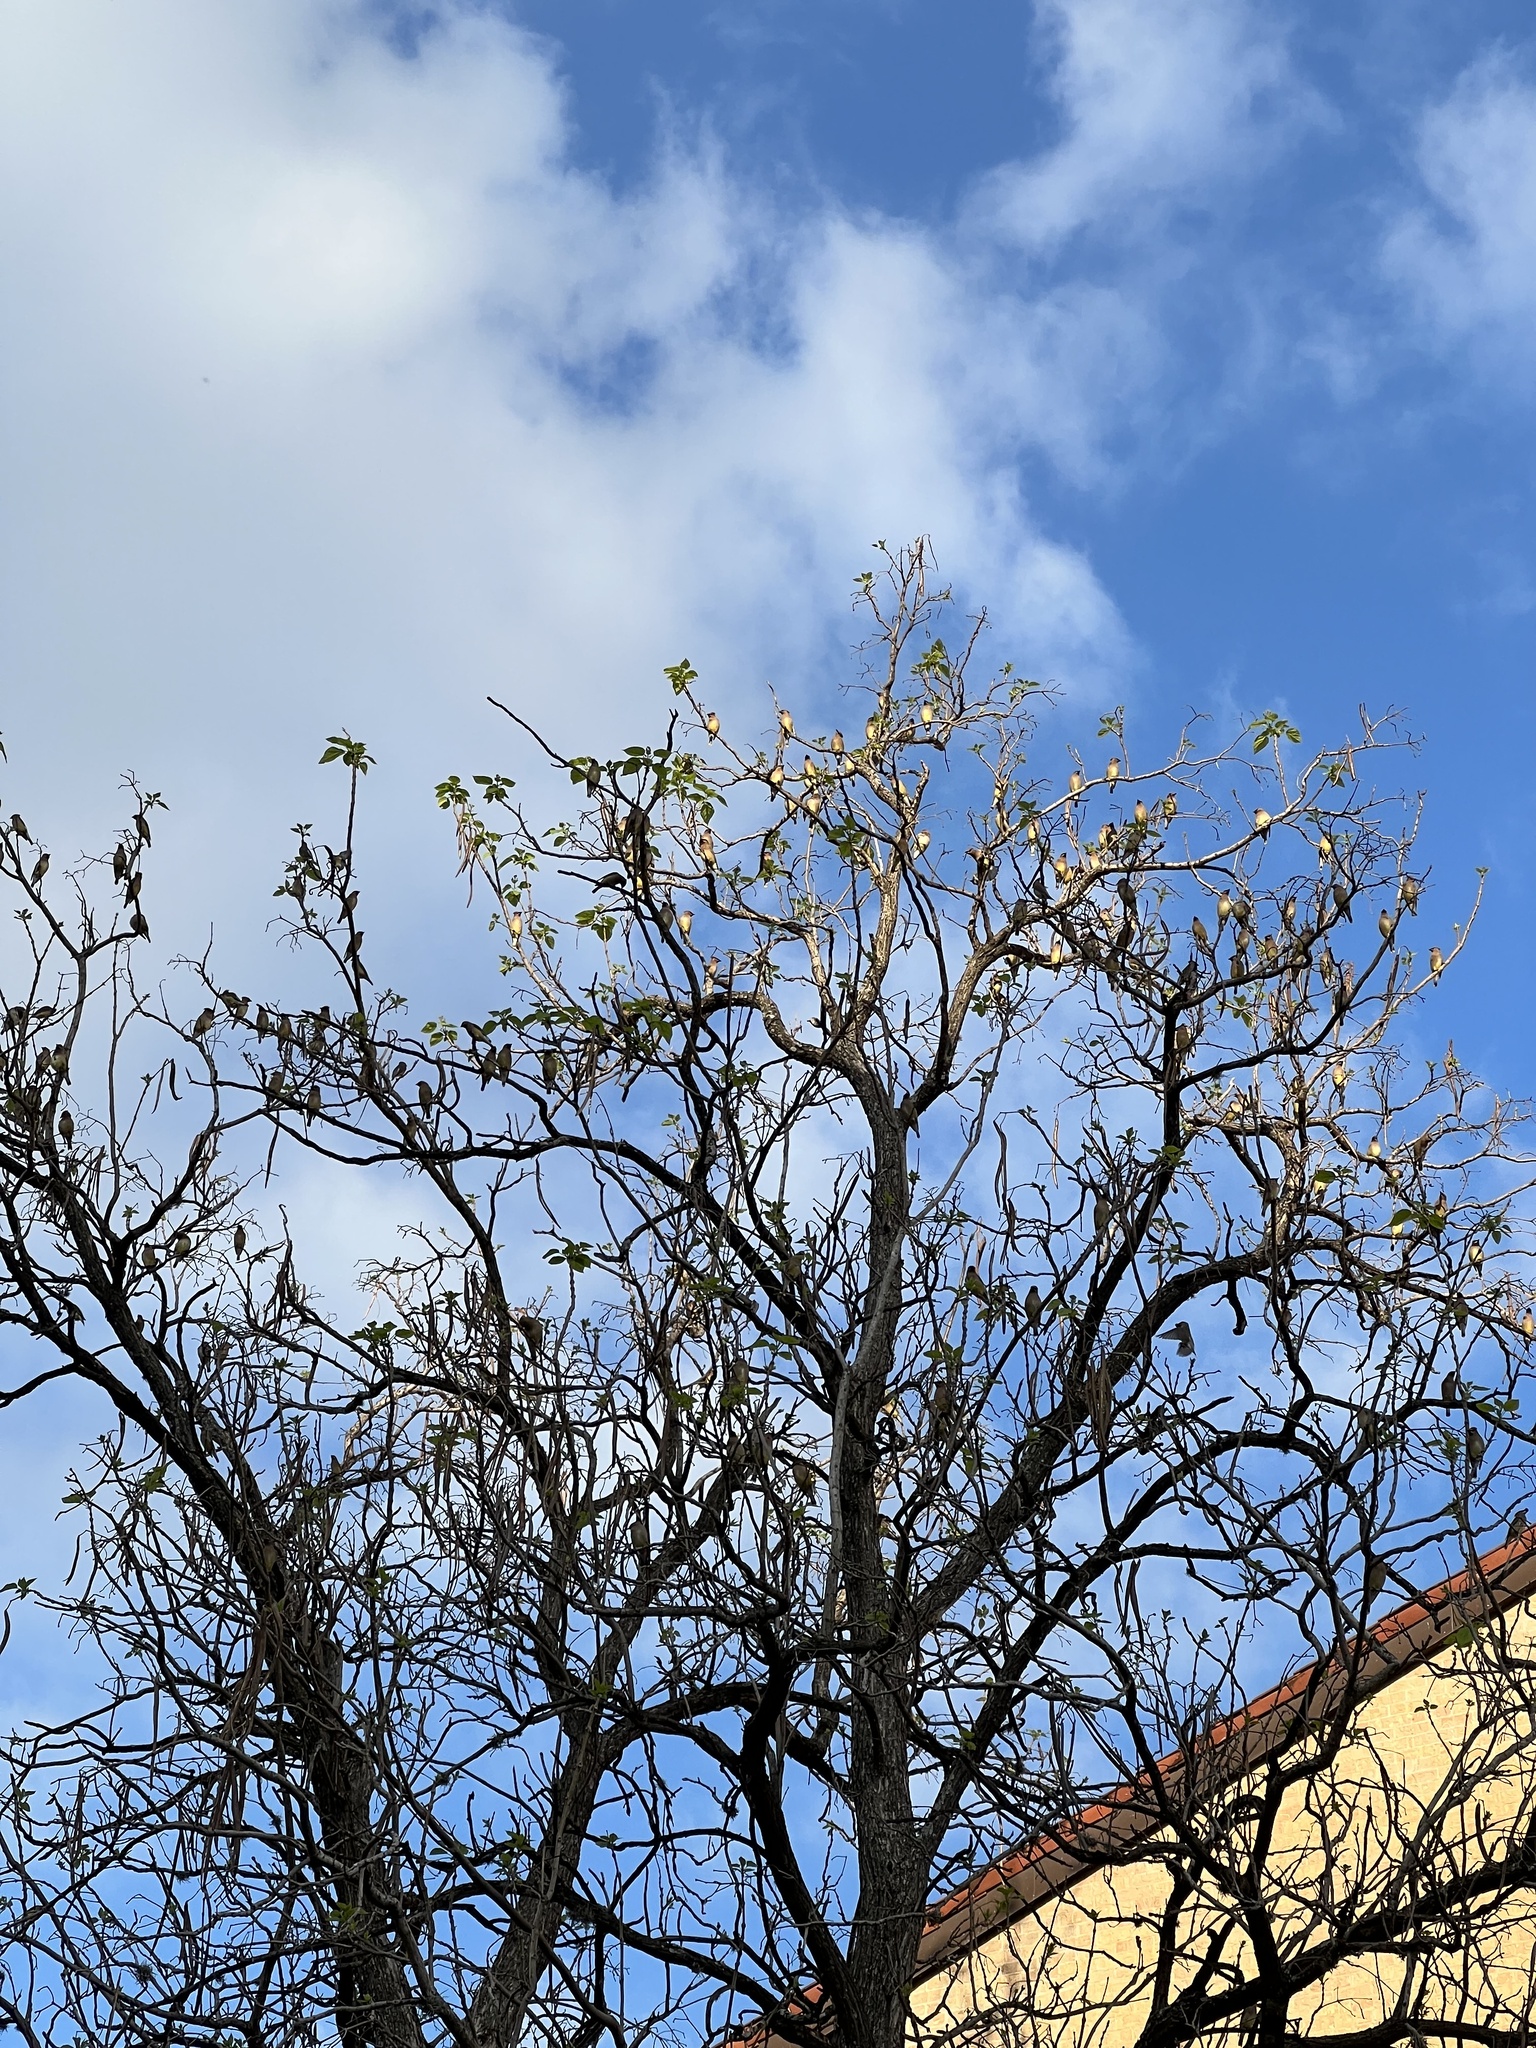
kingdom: Animalia
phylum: Chordata
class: Aves
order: Passeriformes
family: Bombycillidae
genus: Bombycilla
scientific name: Bombycilla cedrorum
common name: Cedar waxwing
